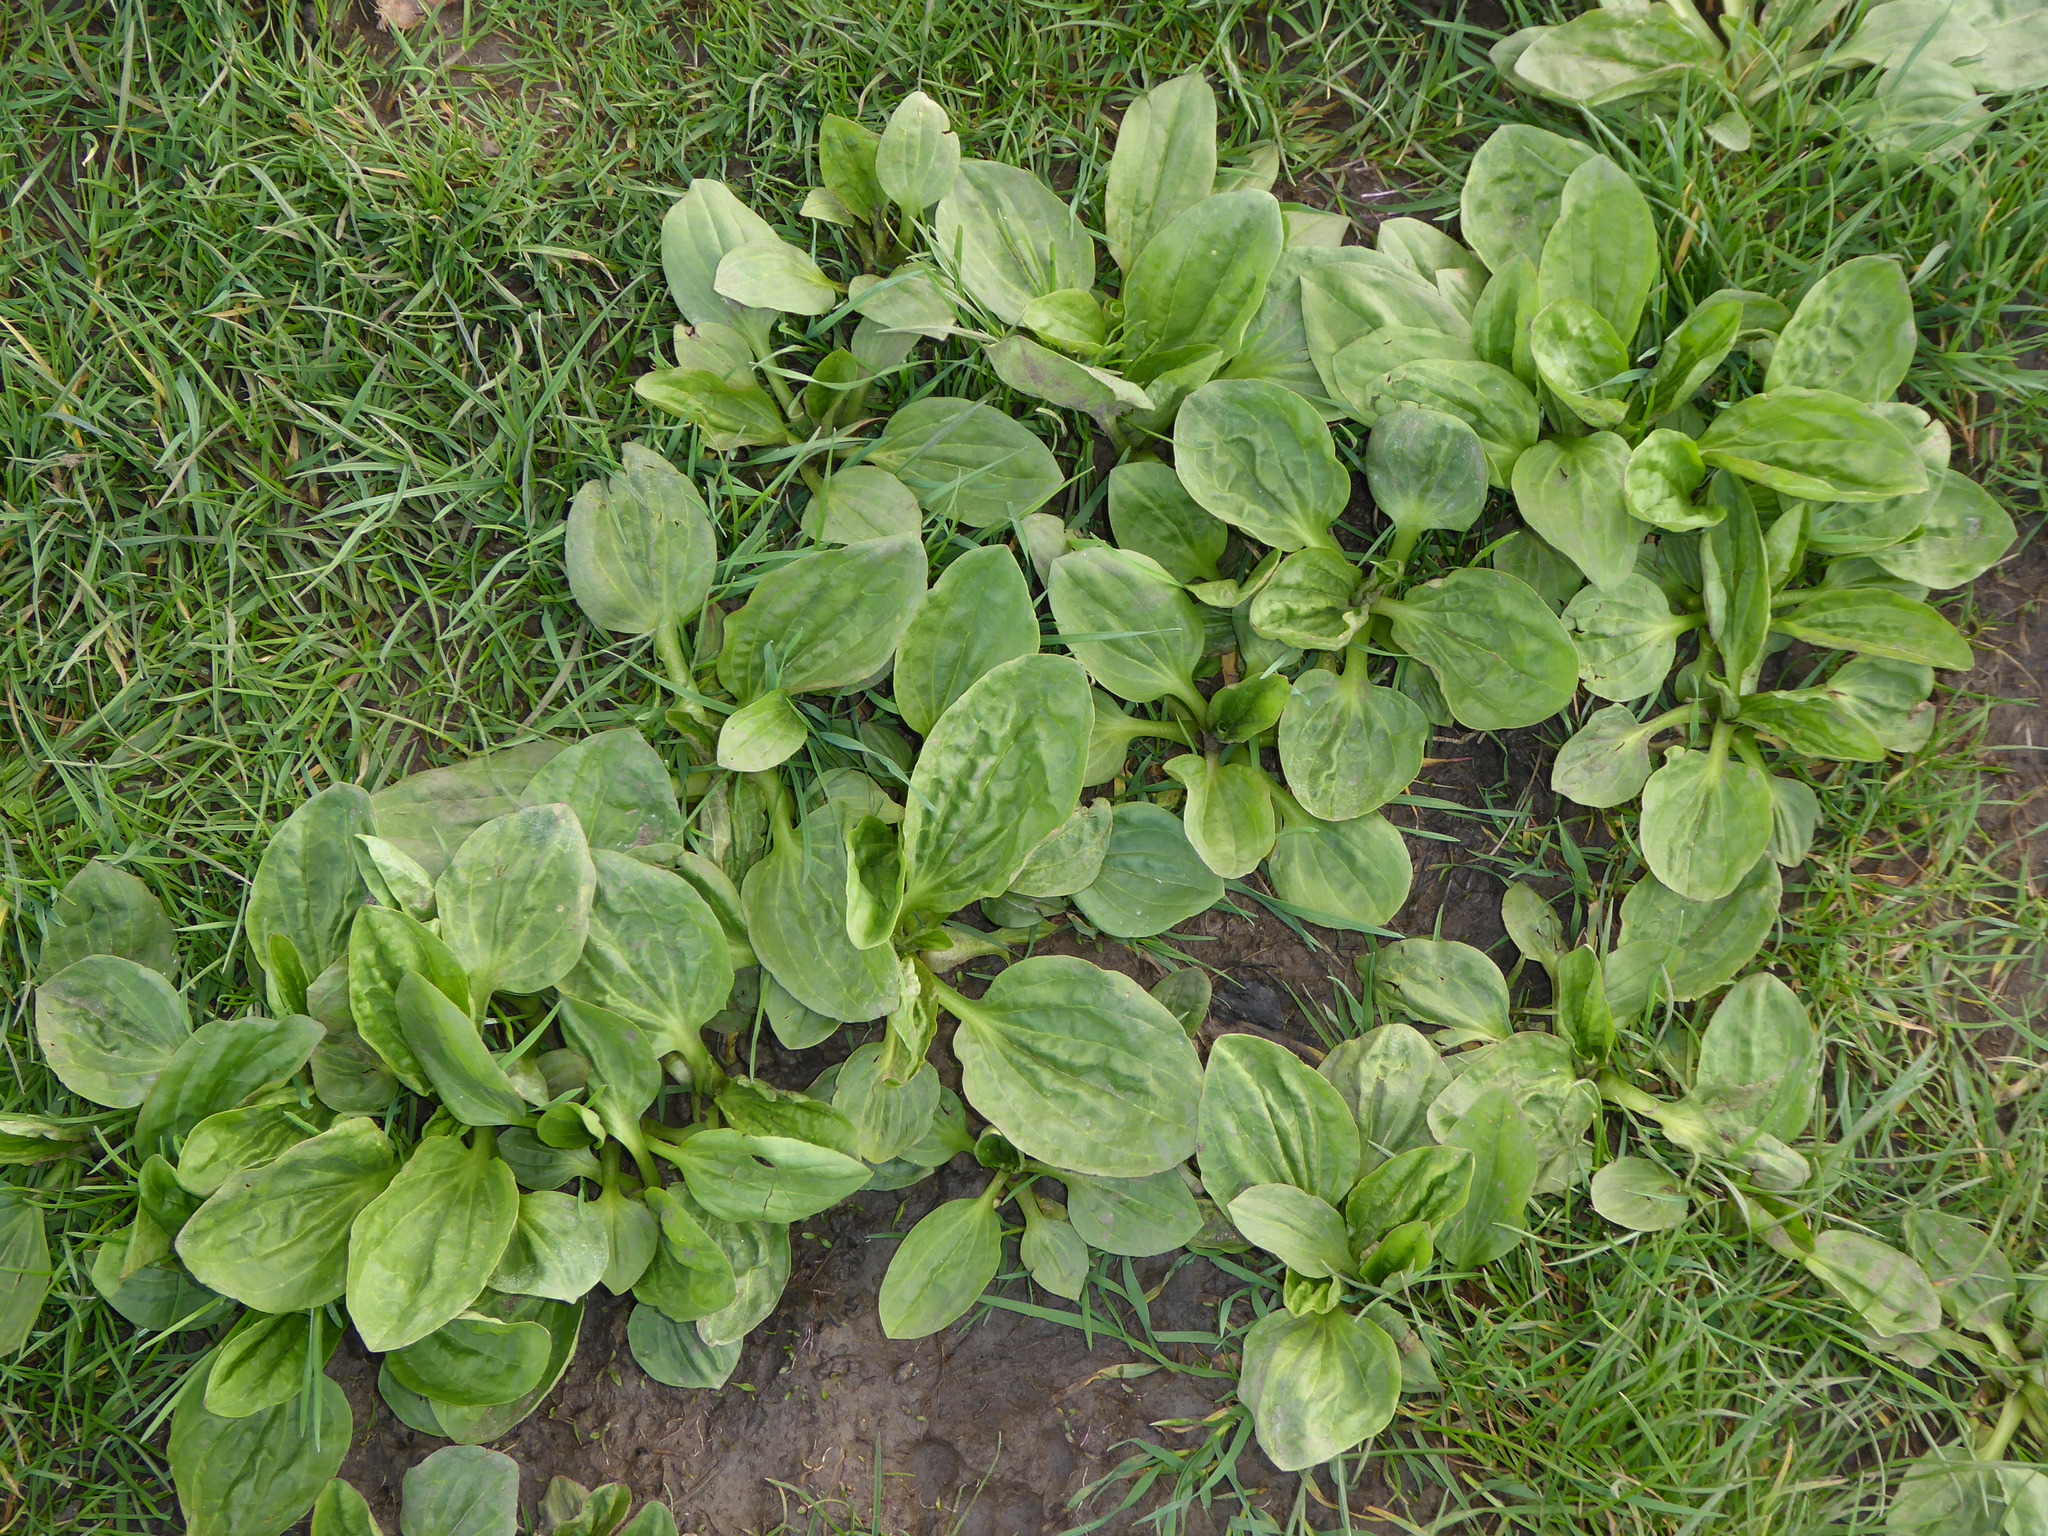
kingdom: Plantae
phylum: Tracheophyta
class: Magnoliopsida
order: Lamiales
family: Plantaginaceae
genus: Plantago
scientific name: Plantago major
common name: Common plantain
